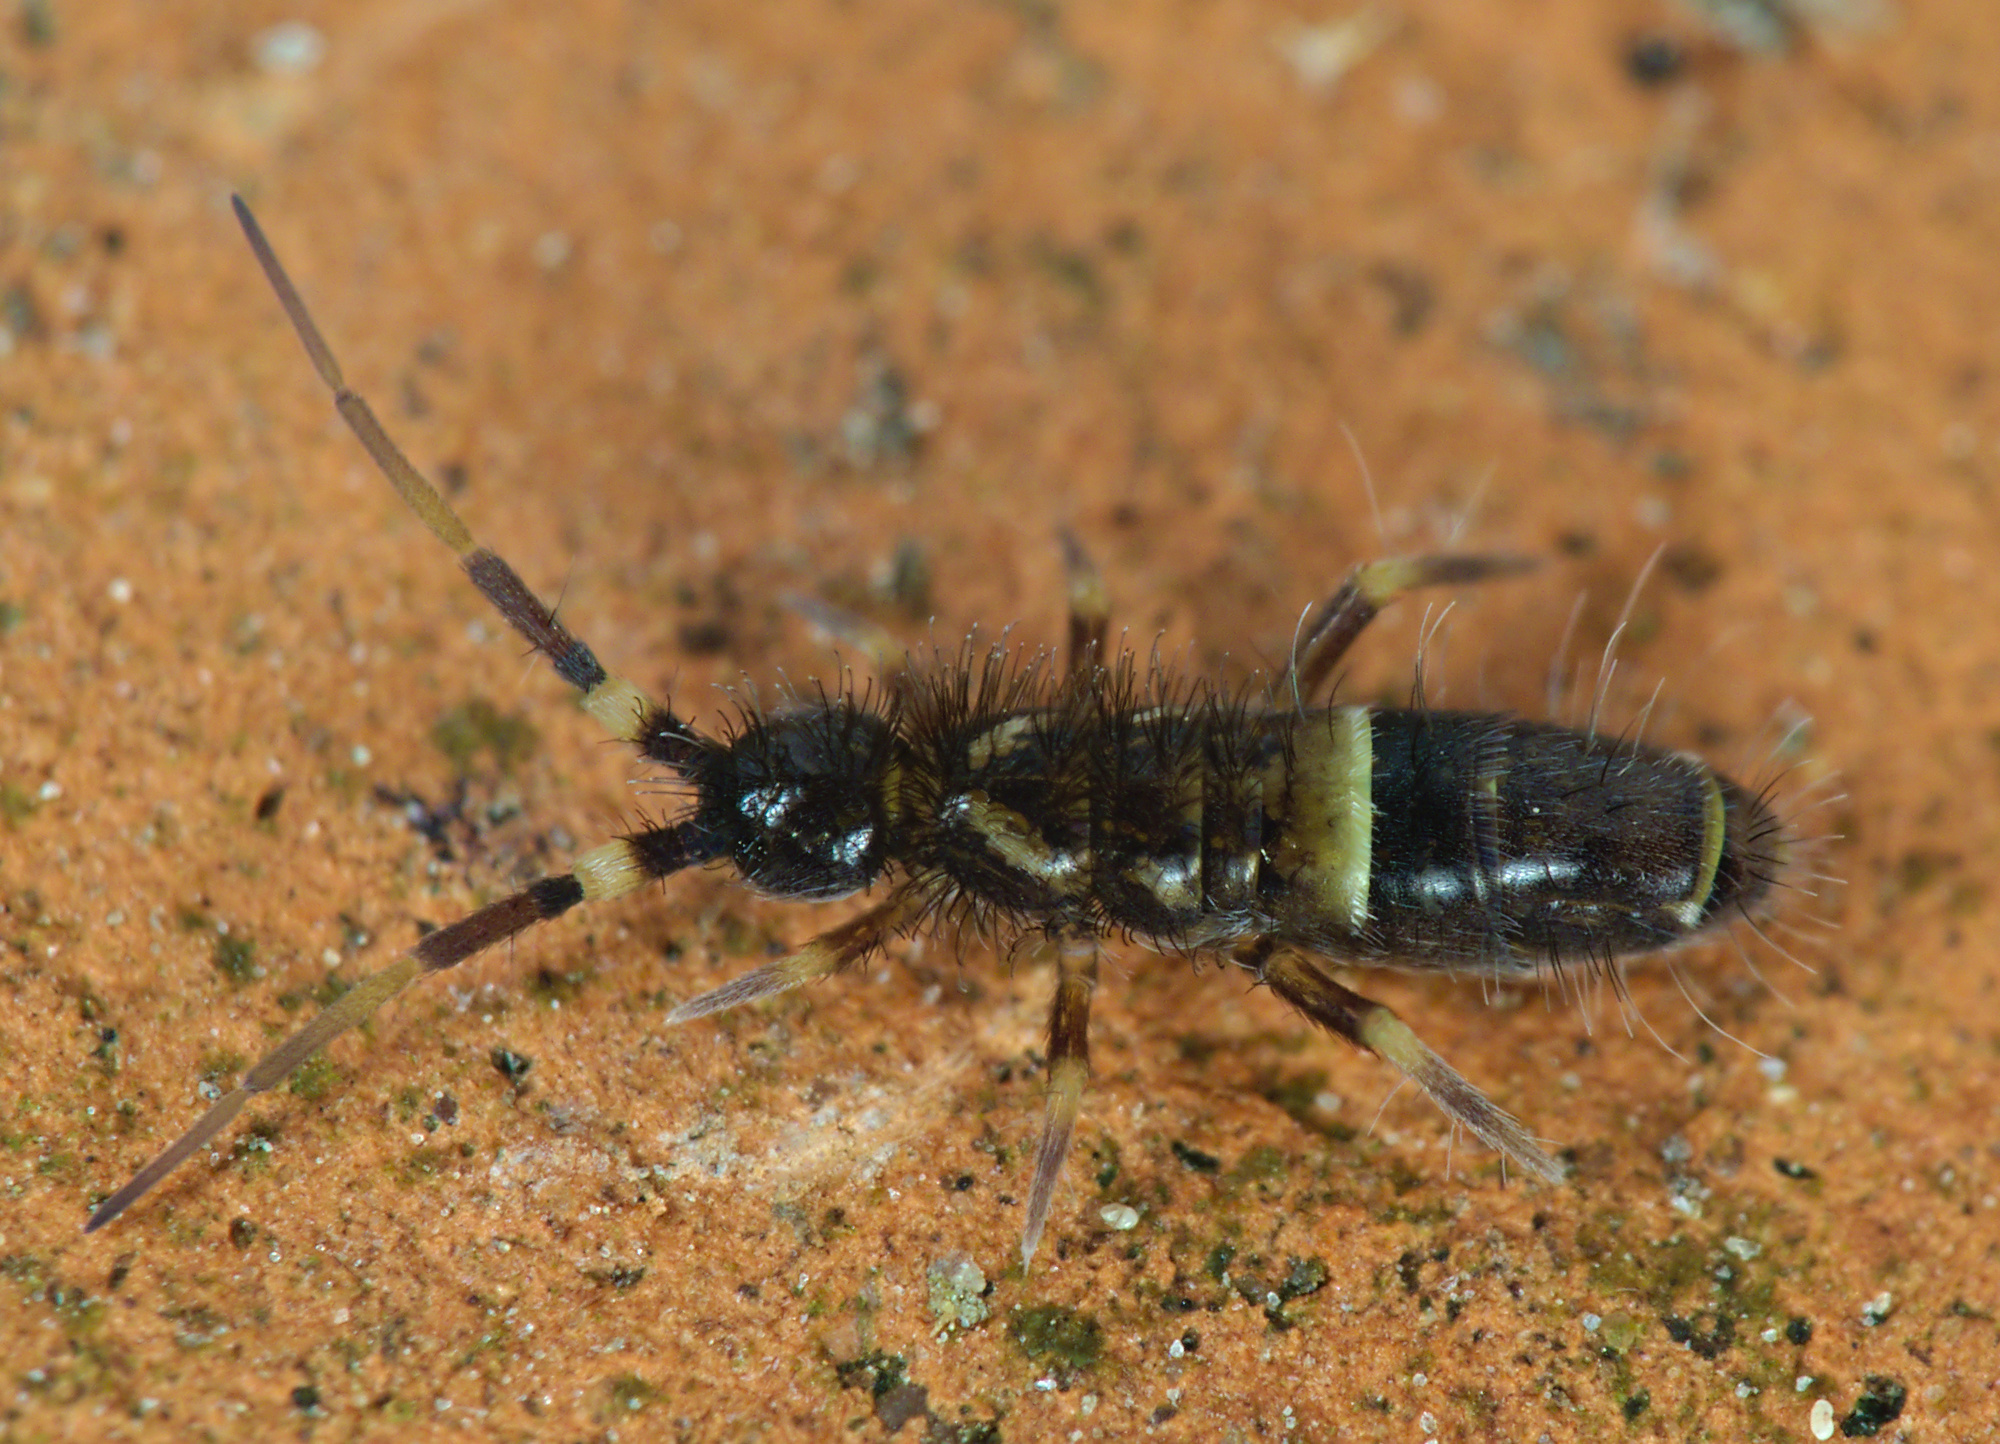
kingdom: Animalia
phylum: Arthropoda
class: Collembola
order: Entomobryomorpha
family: Orchesellidae
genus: Orchesella
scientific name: Orchesella cincta
